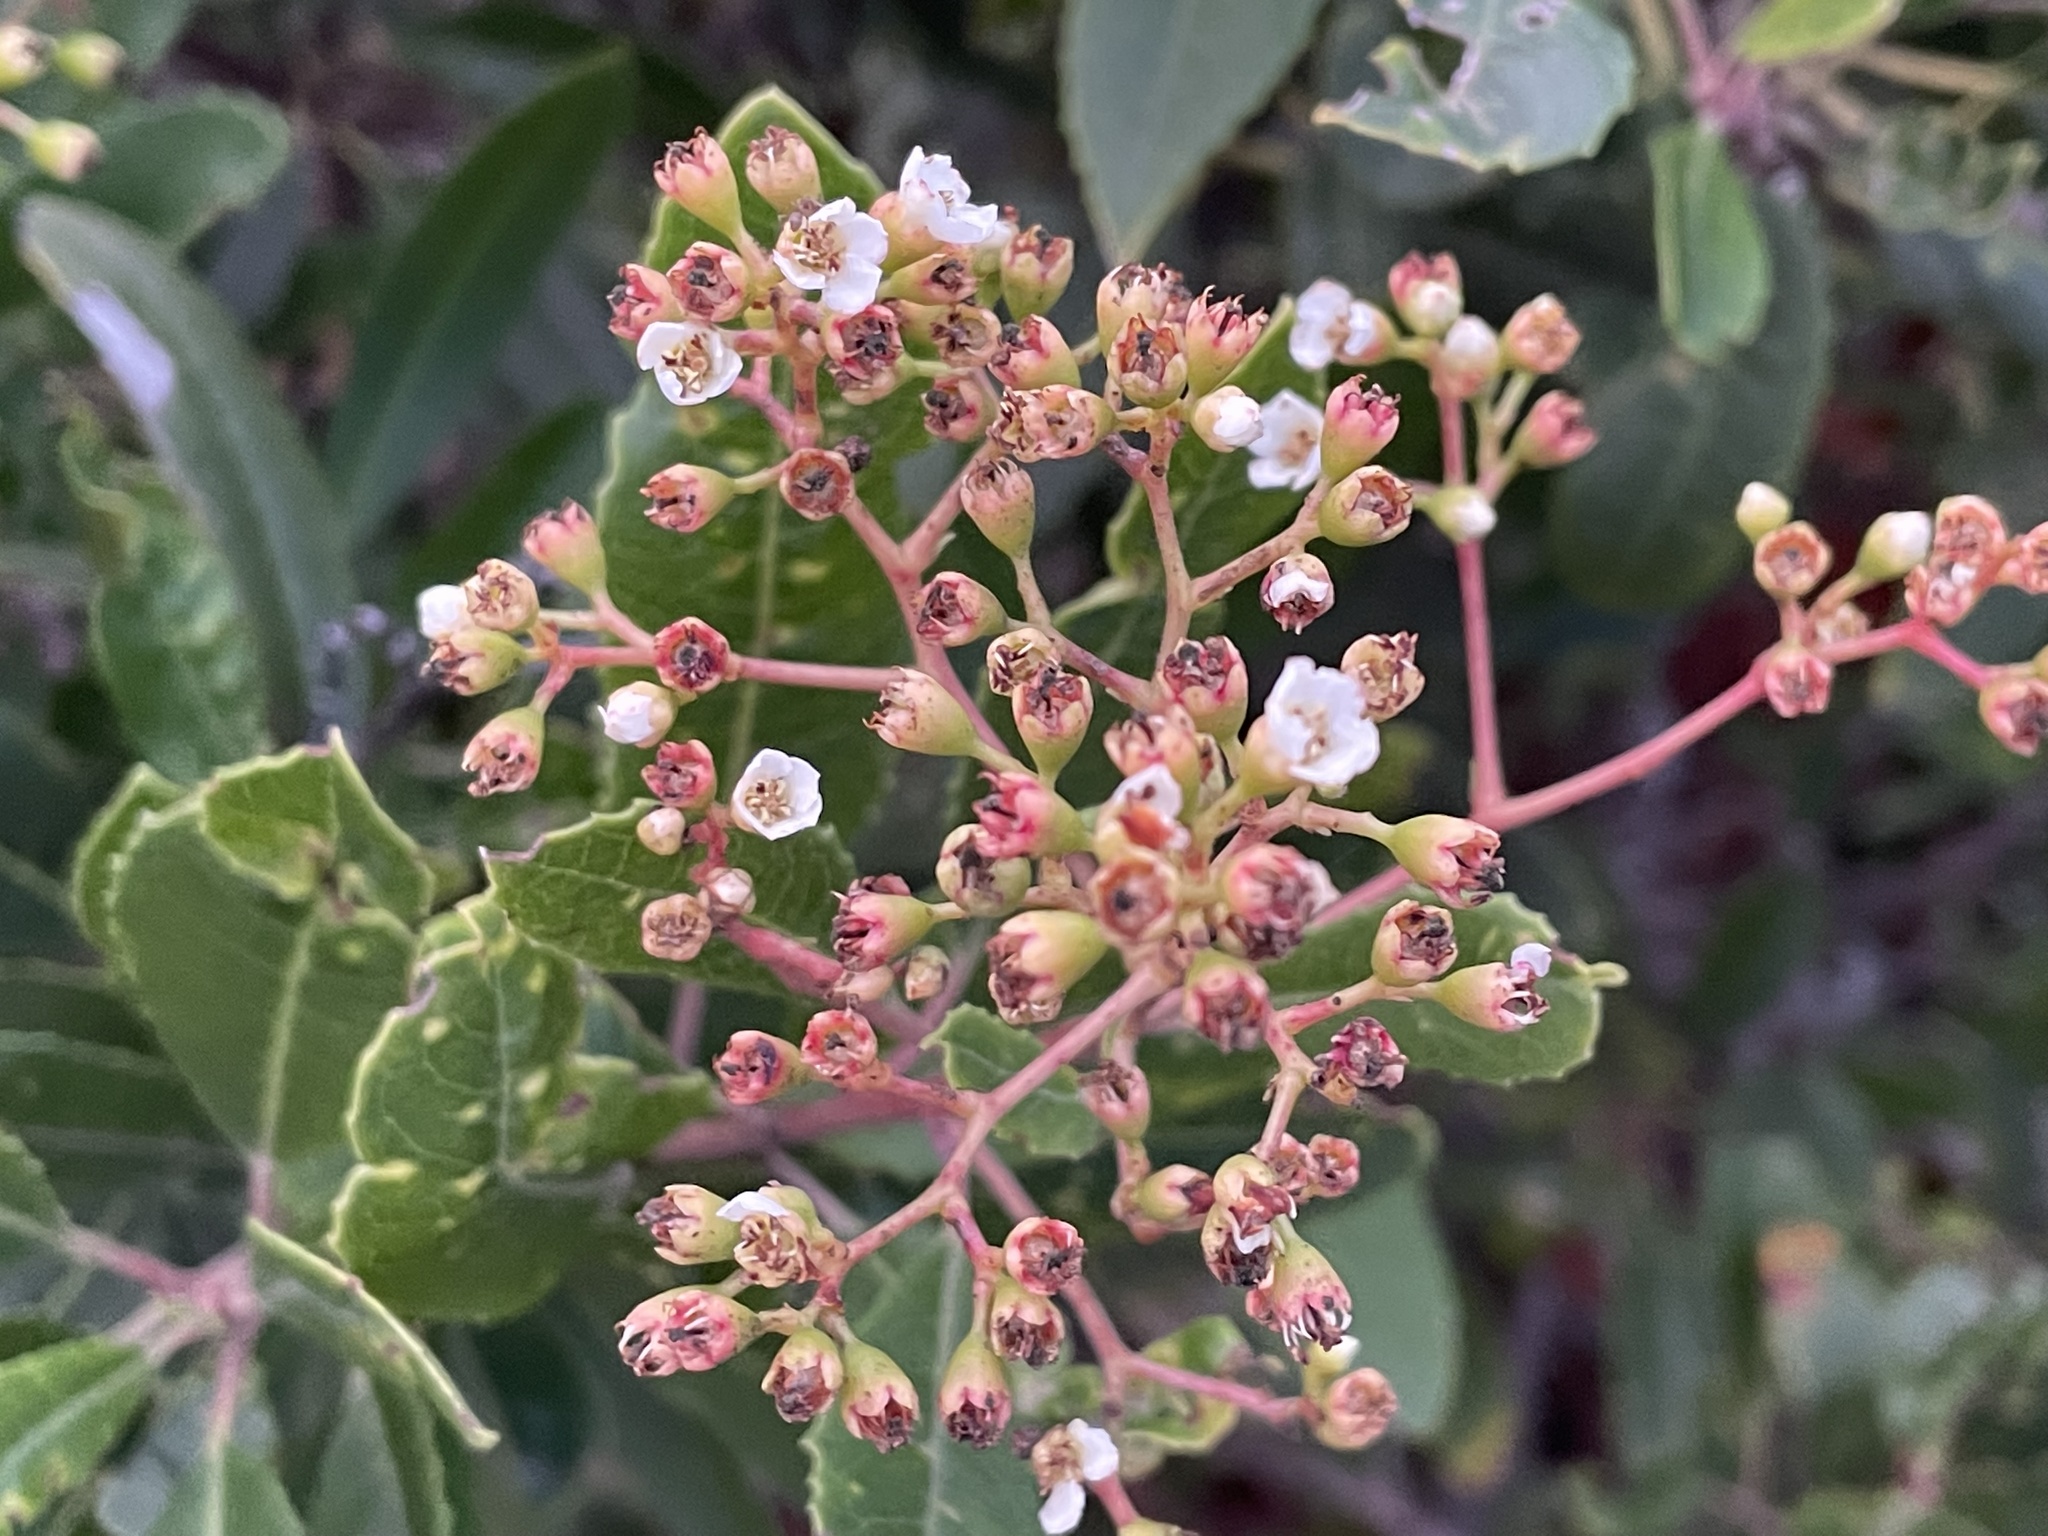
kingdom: Plantae
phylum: Tracheophyta
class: Magnoliopsida
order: Rosales
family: Rosaceae
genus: Heteromeles
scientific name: Heteromeles arbutifolia
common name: California-holly
